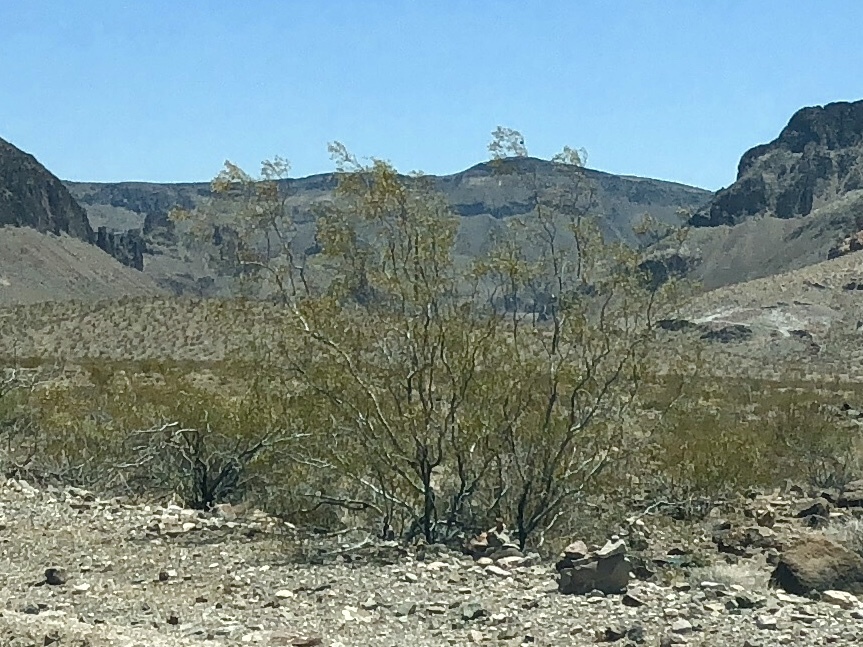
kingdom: Plantae
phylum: Tracheophyta
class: Magnoliopsida
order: Zygophyllales
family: Zygophyllaceae
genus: Larrea
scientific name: Larrea tridentata
